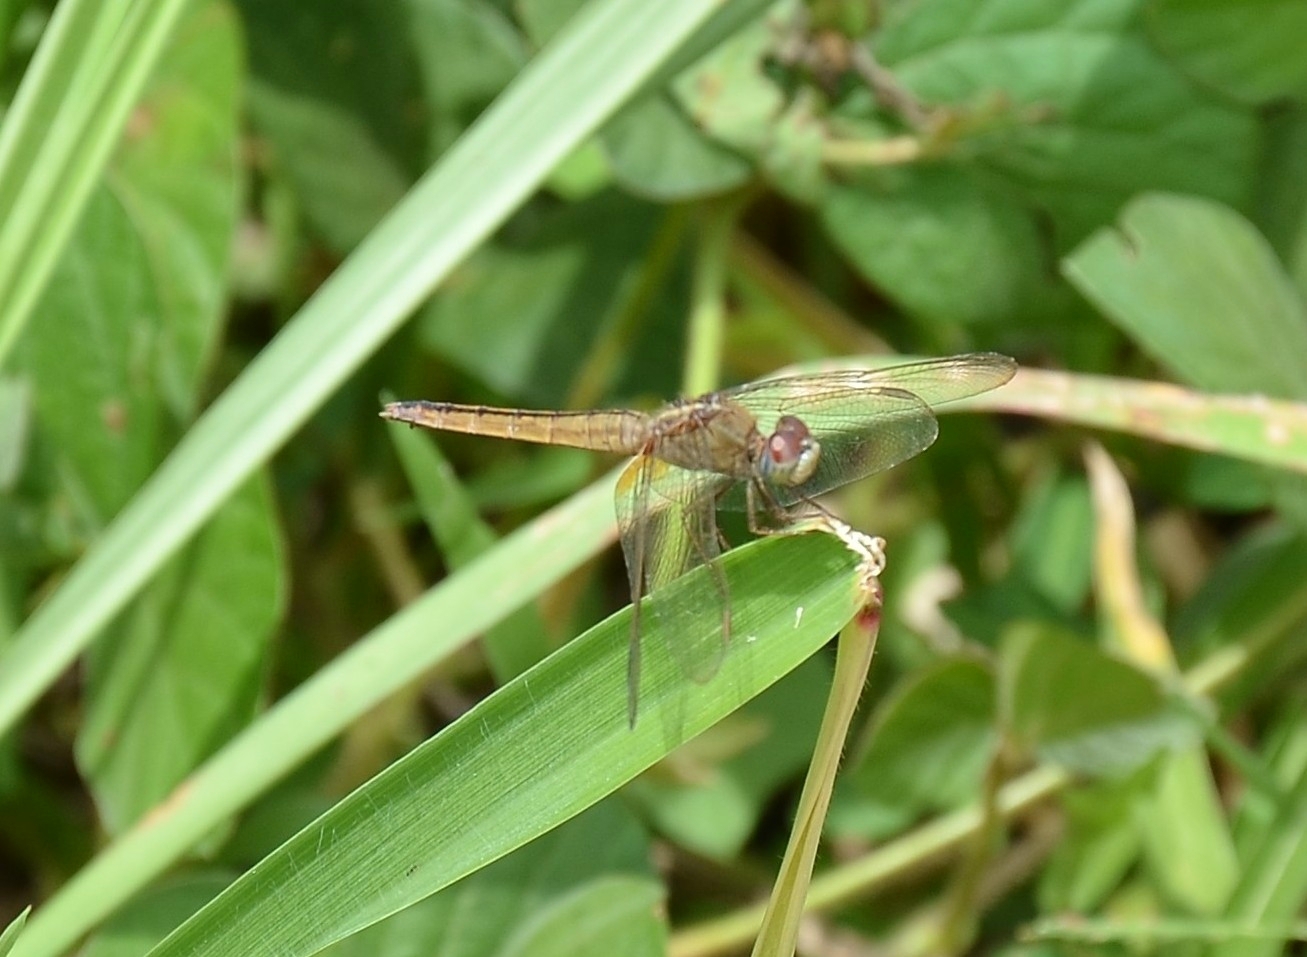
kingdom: Animalia
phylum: Arthropoda
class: Insecta
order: Odonata
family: Libellulidae
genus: Crocothemis
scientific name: Crocothemis servilia
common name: Scarlet skimmer
